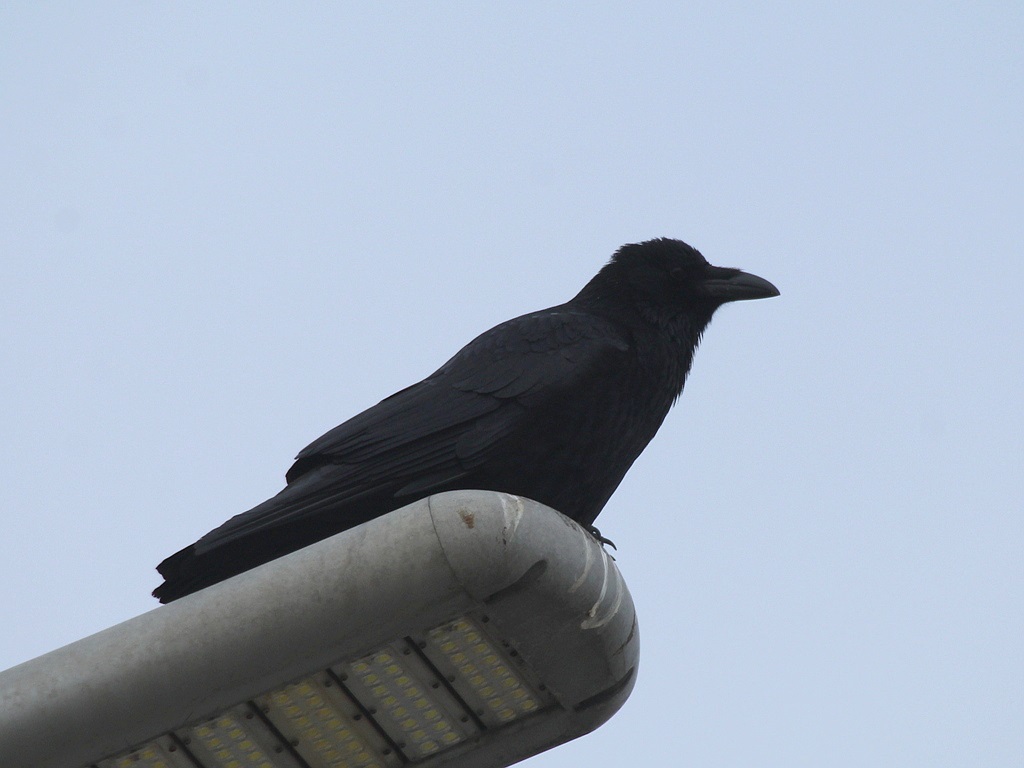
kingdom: Animalia
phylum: Chordata
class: Aves
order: Passeriformes
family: Corvidae
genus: Corvus
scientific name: Corvus corone
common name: Carrion crow
